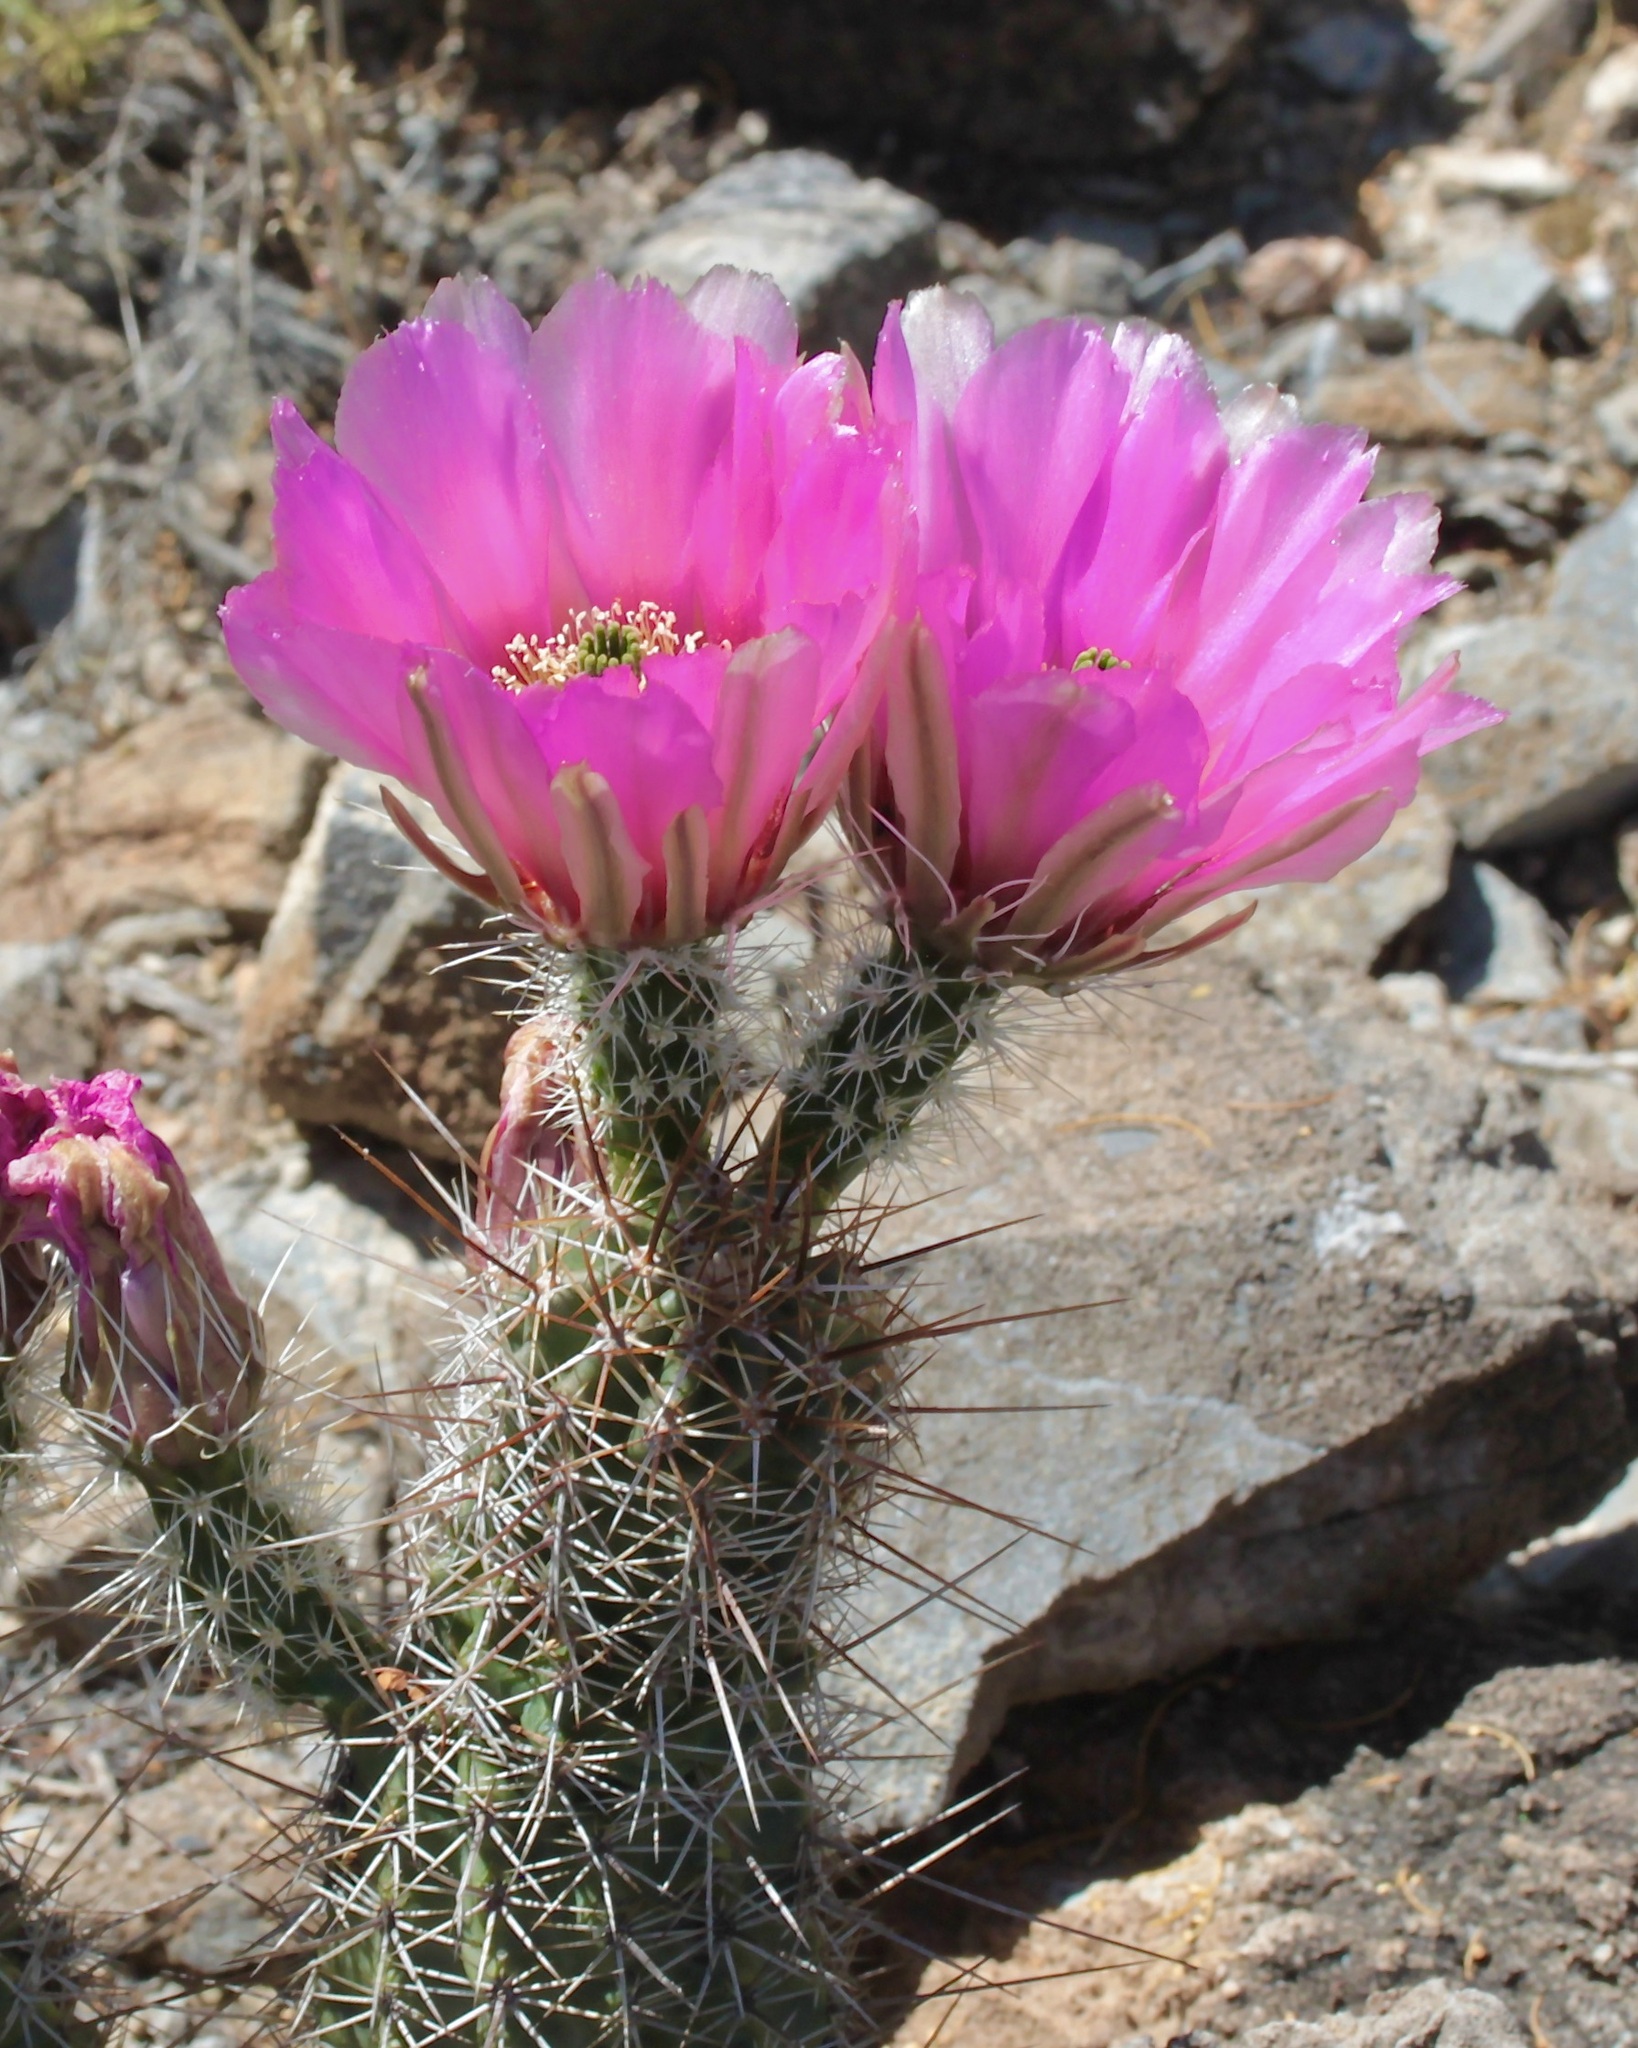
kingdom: Plantae
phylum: Tracheophyta
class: Magnoliopsida
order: Caryophyllales
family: Cactaceae
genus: Echinocereus
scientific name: Echinocereus fasciculatus
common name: Bundle hedgehog
